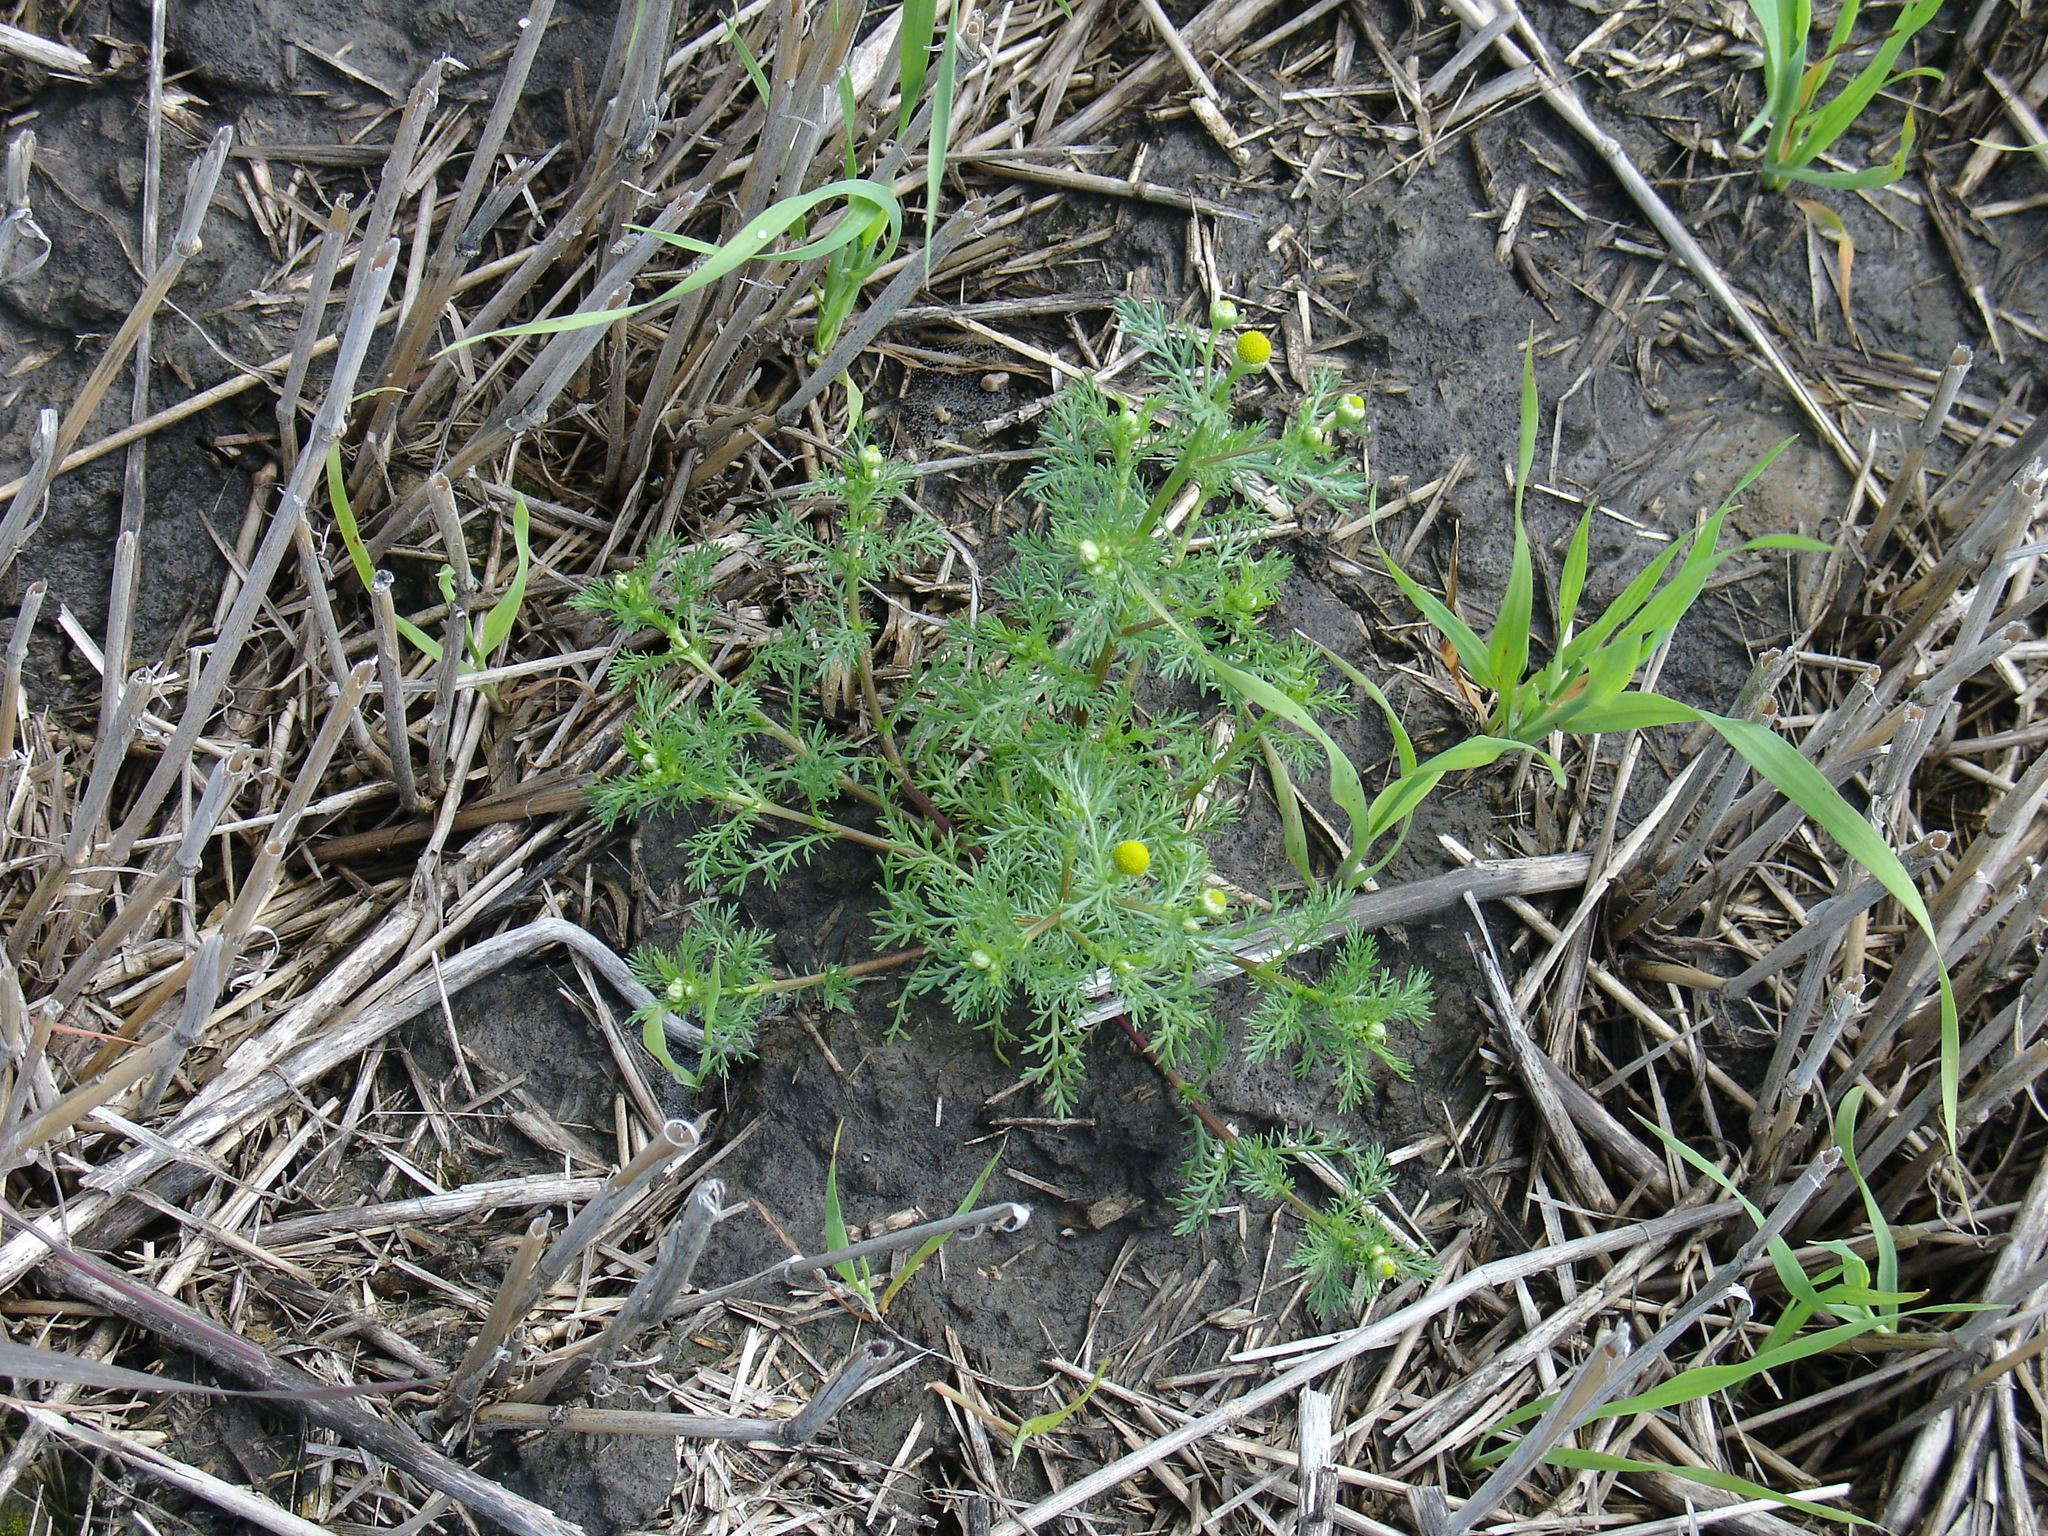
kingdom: Plantae
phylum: Tracheophyta
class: Magnoliopsida
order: Asterales
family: Asteraceae
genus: Matricaria
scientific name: Matricaria discoidea
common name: Disc mayweed
